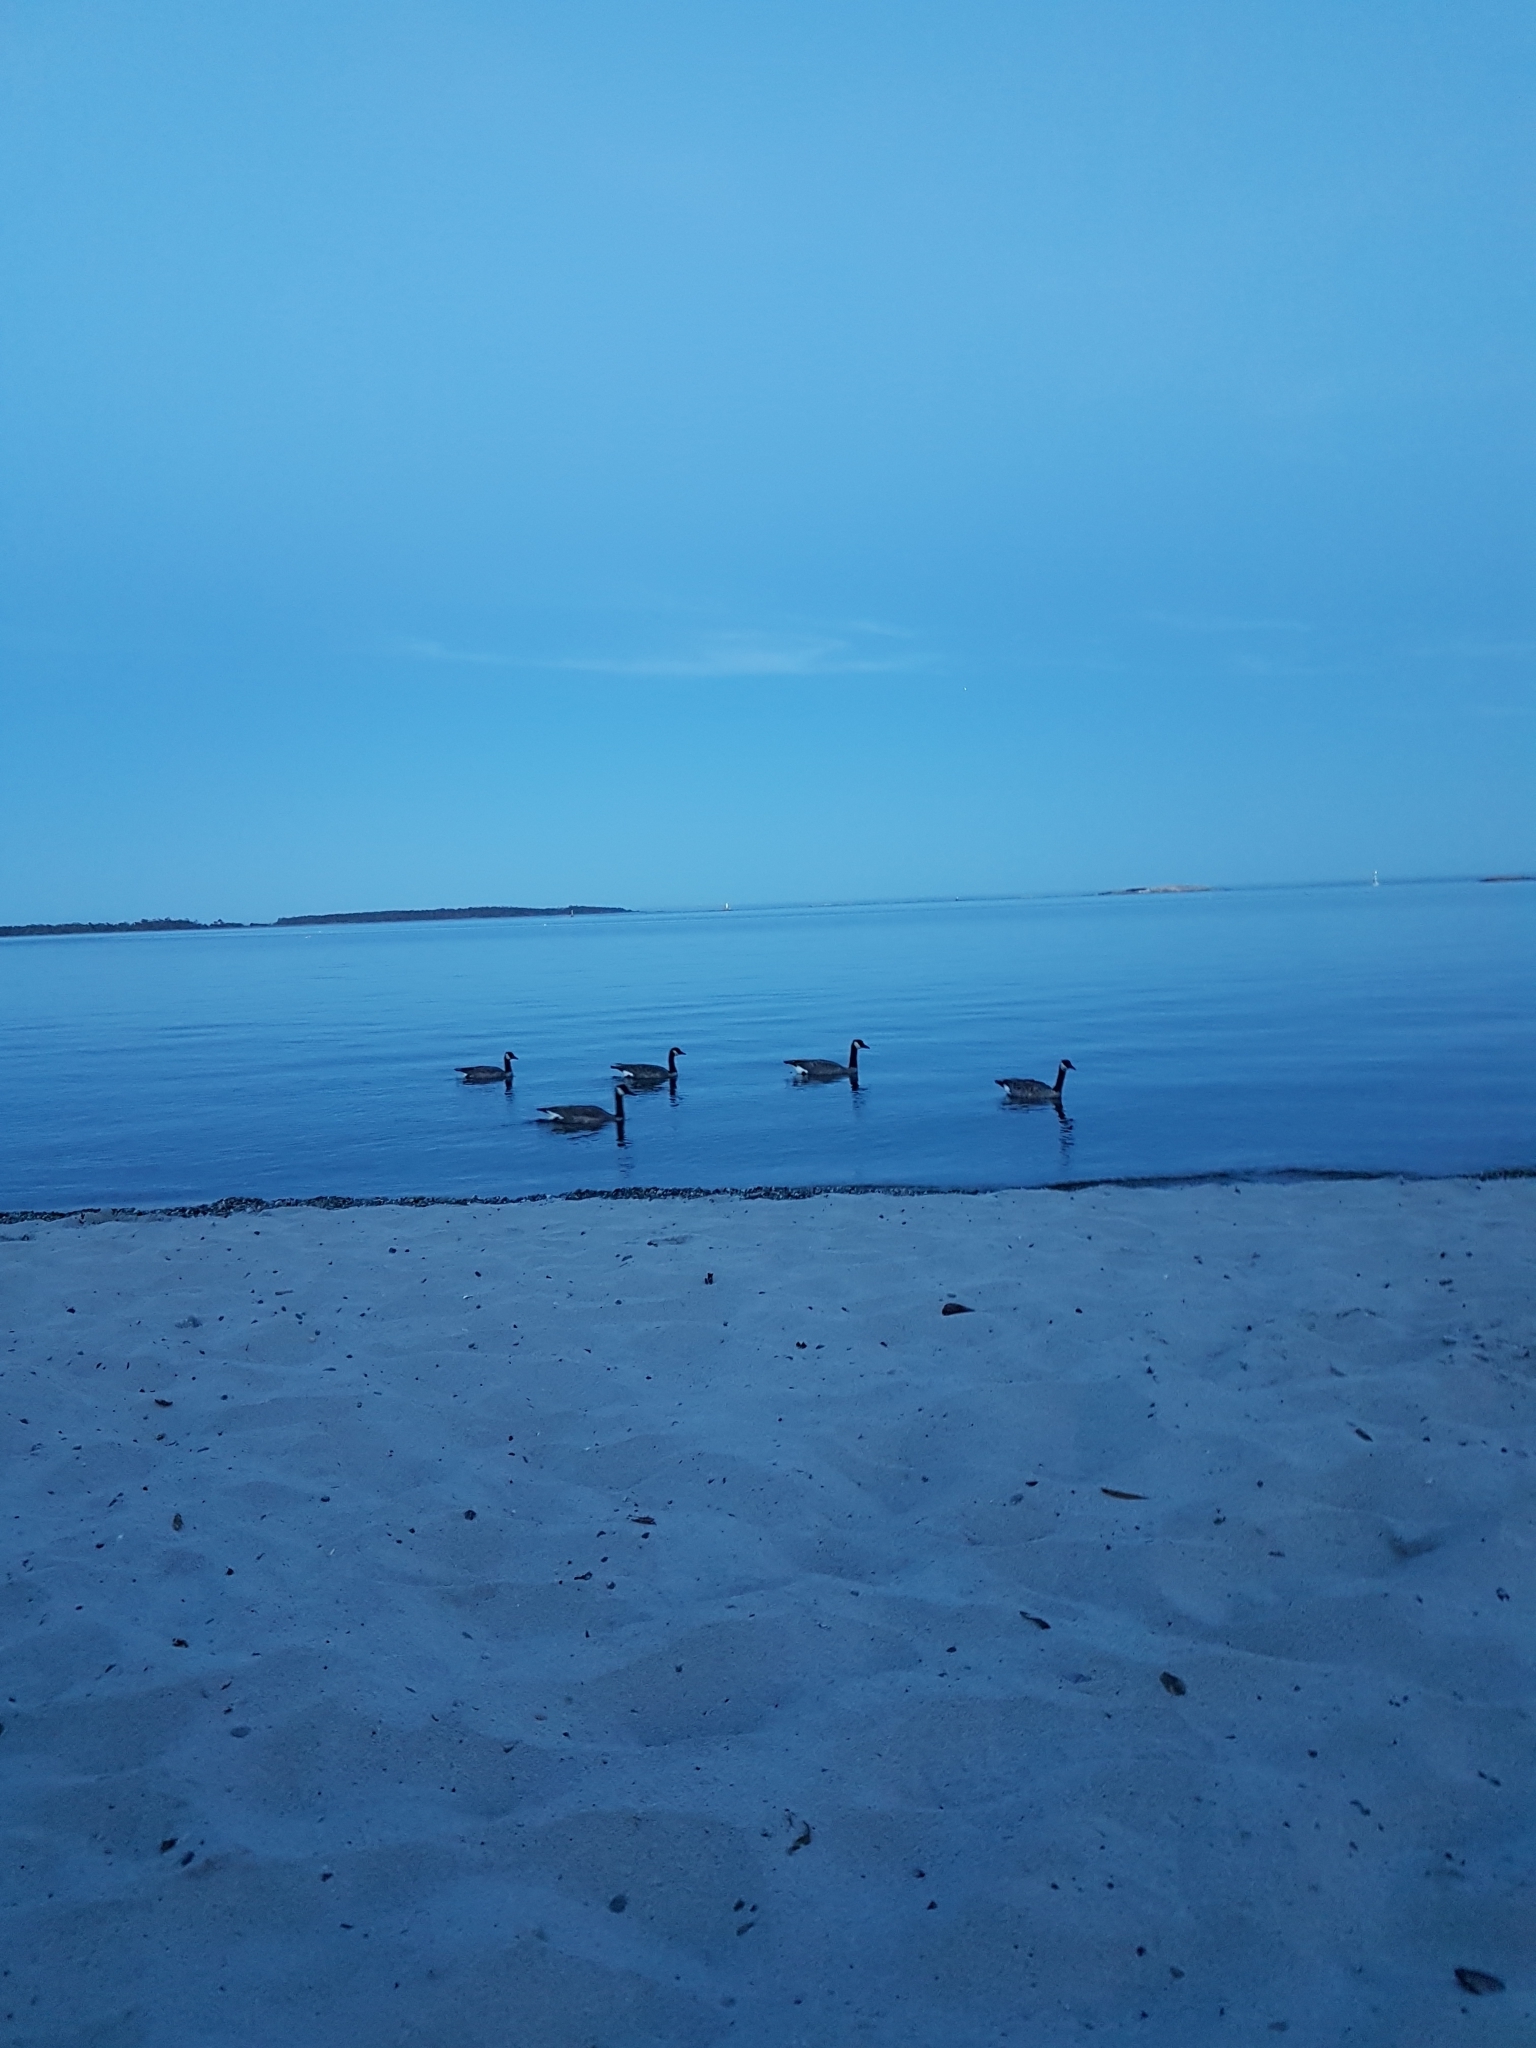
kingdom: Animalia
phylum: Chordata
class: Aves
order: Anseriformes
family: Anatidae
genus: Branta
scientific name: Branta canadensis
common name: Canada goose
